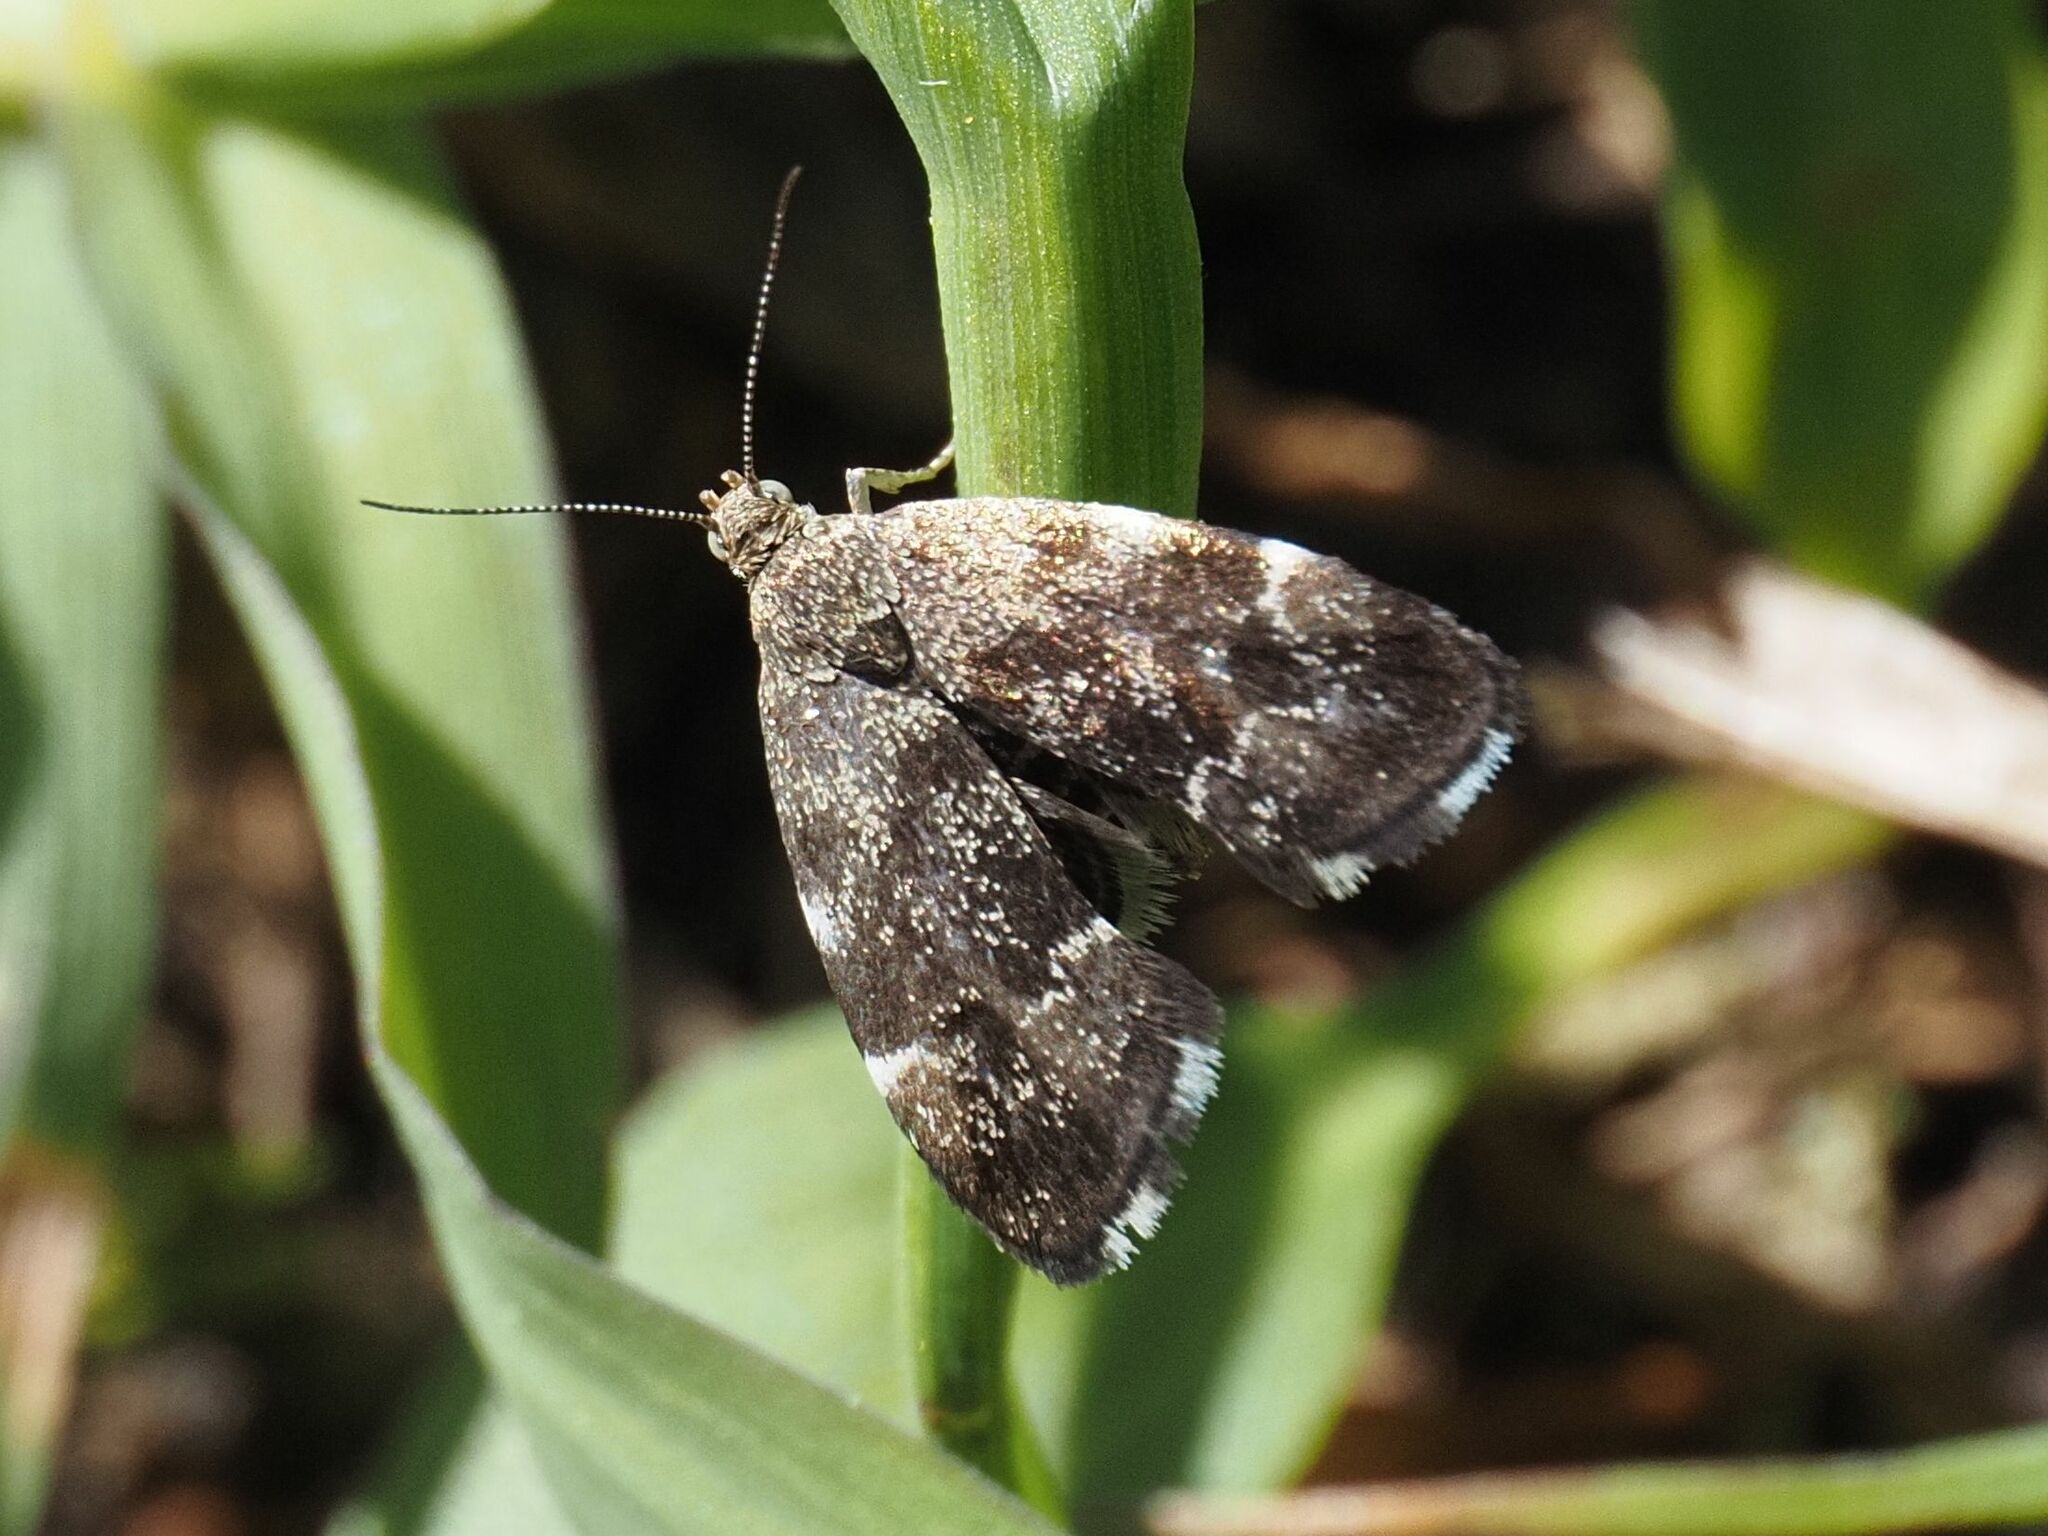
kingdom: Animalia
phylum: Arthropoda
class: Insecta
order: Lepidoptera
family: Choreutidae
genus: Anthophila
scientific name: Anthophila fabriciana
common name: Nettle-tap
